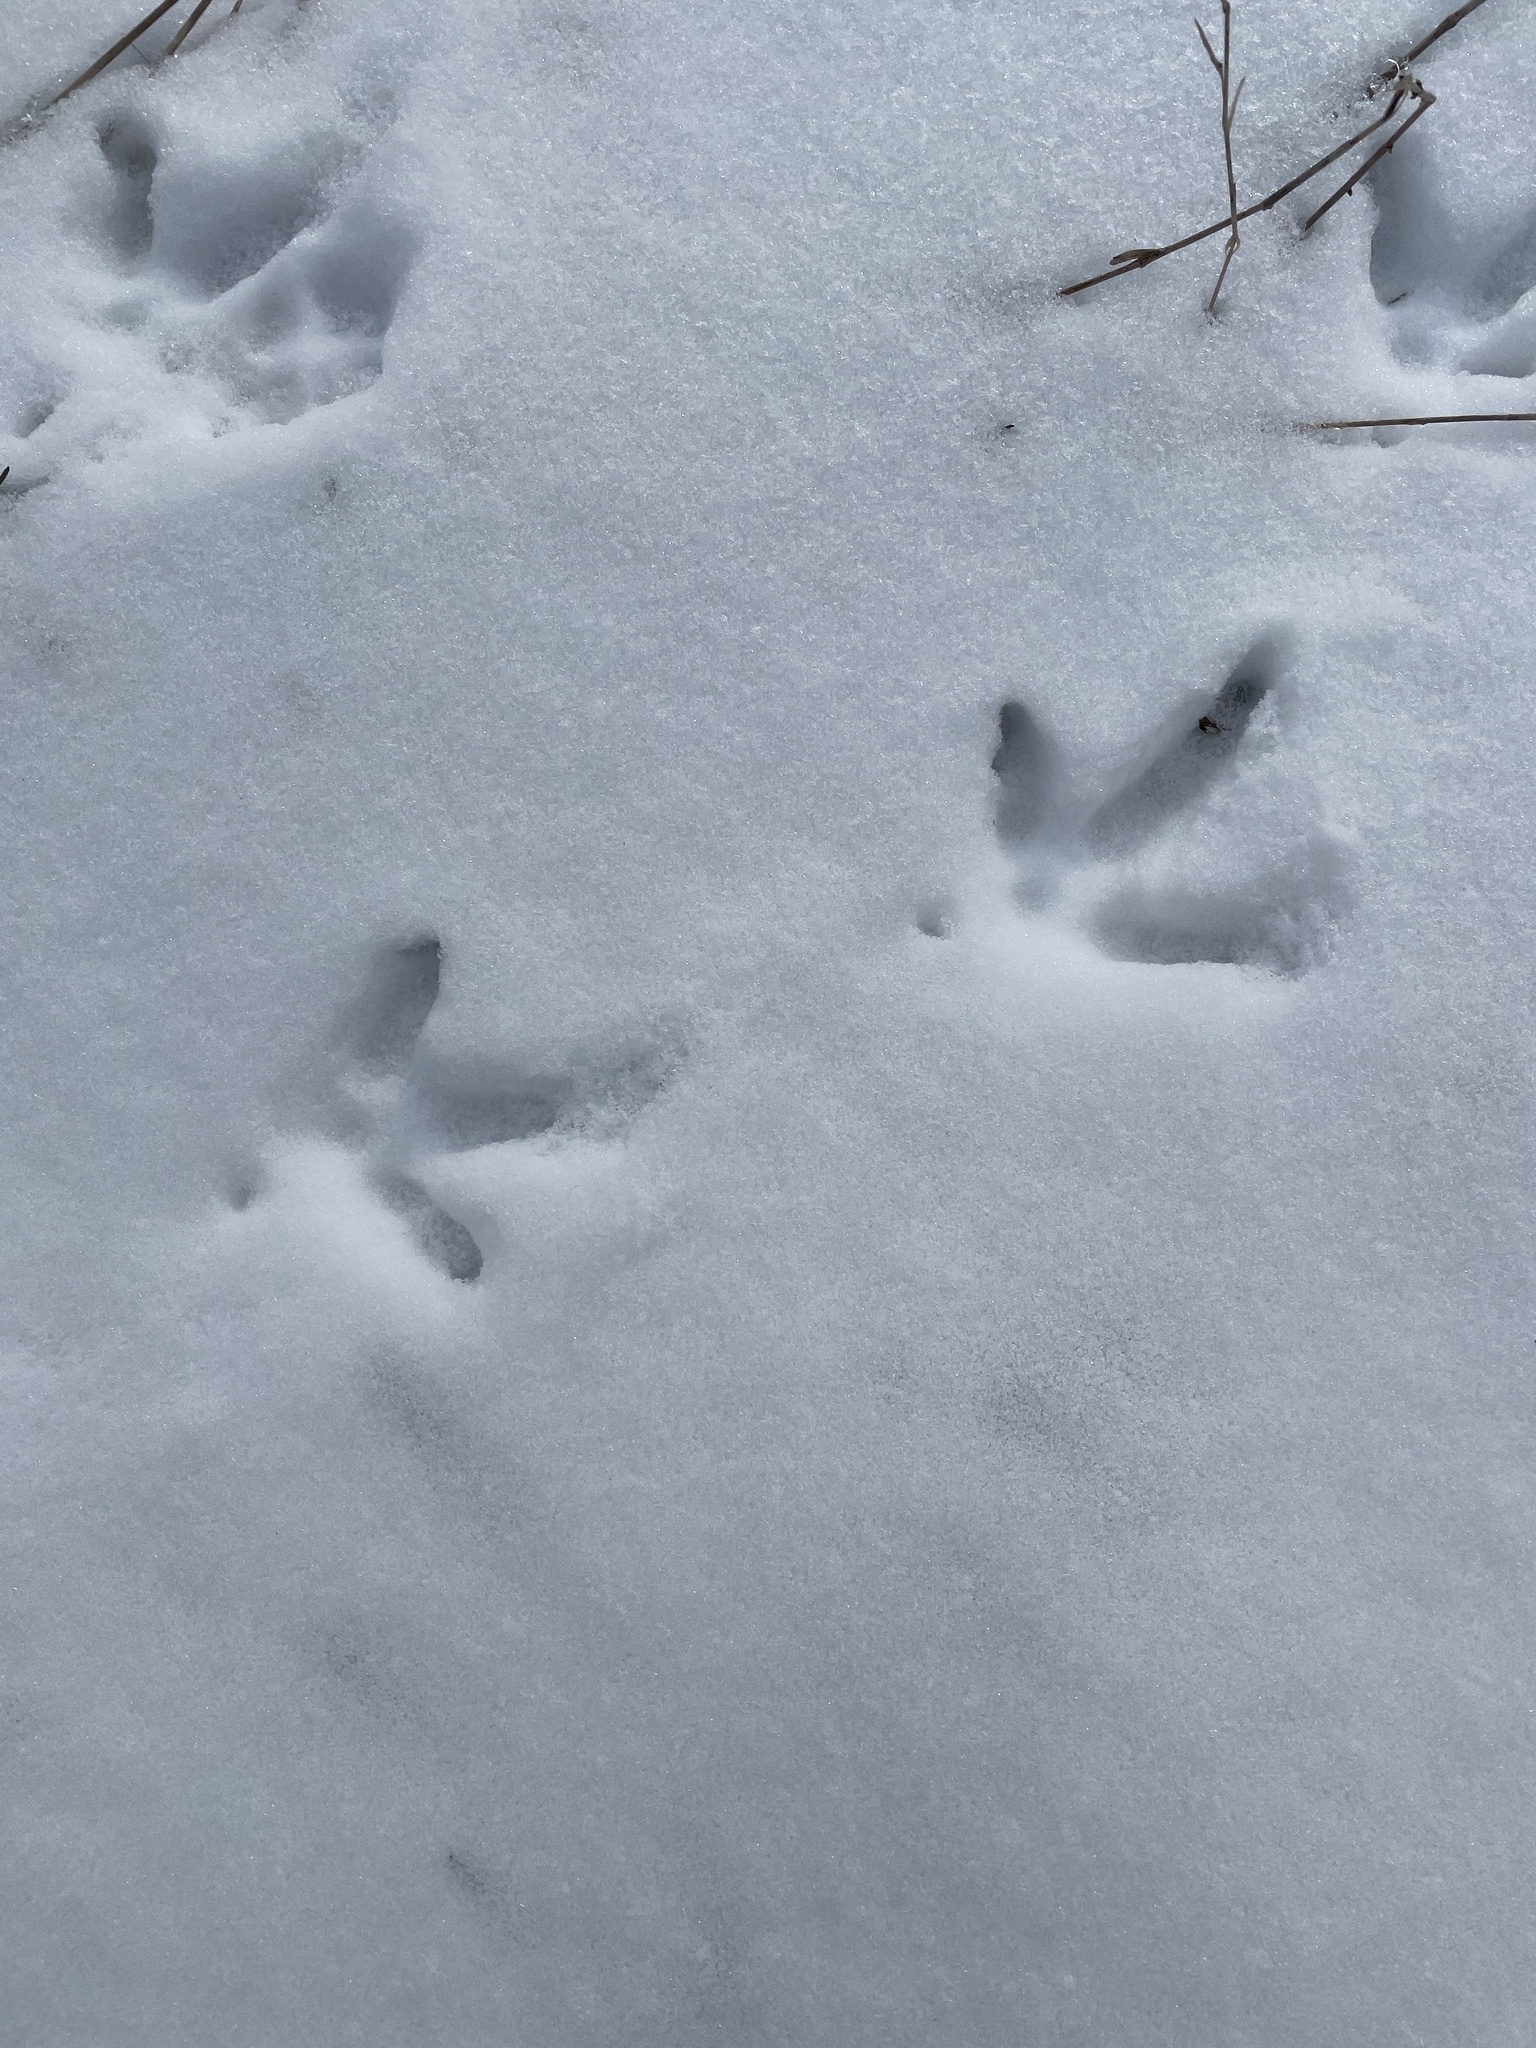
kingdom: Animalia
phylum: Chordata
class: Aves
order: Galliformes
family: Phasianidae
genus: Meleagris
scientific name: Meleagris gallopavo
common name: Wild turkey
